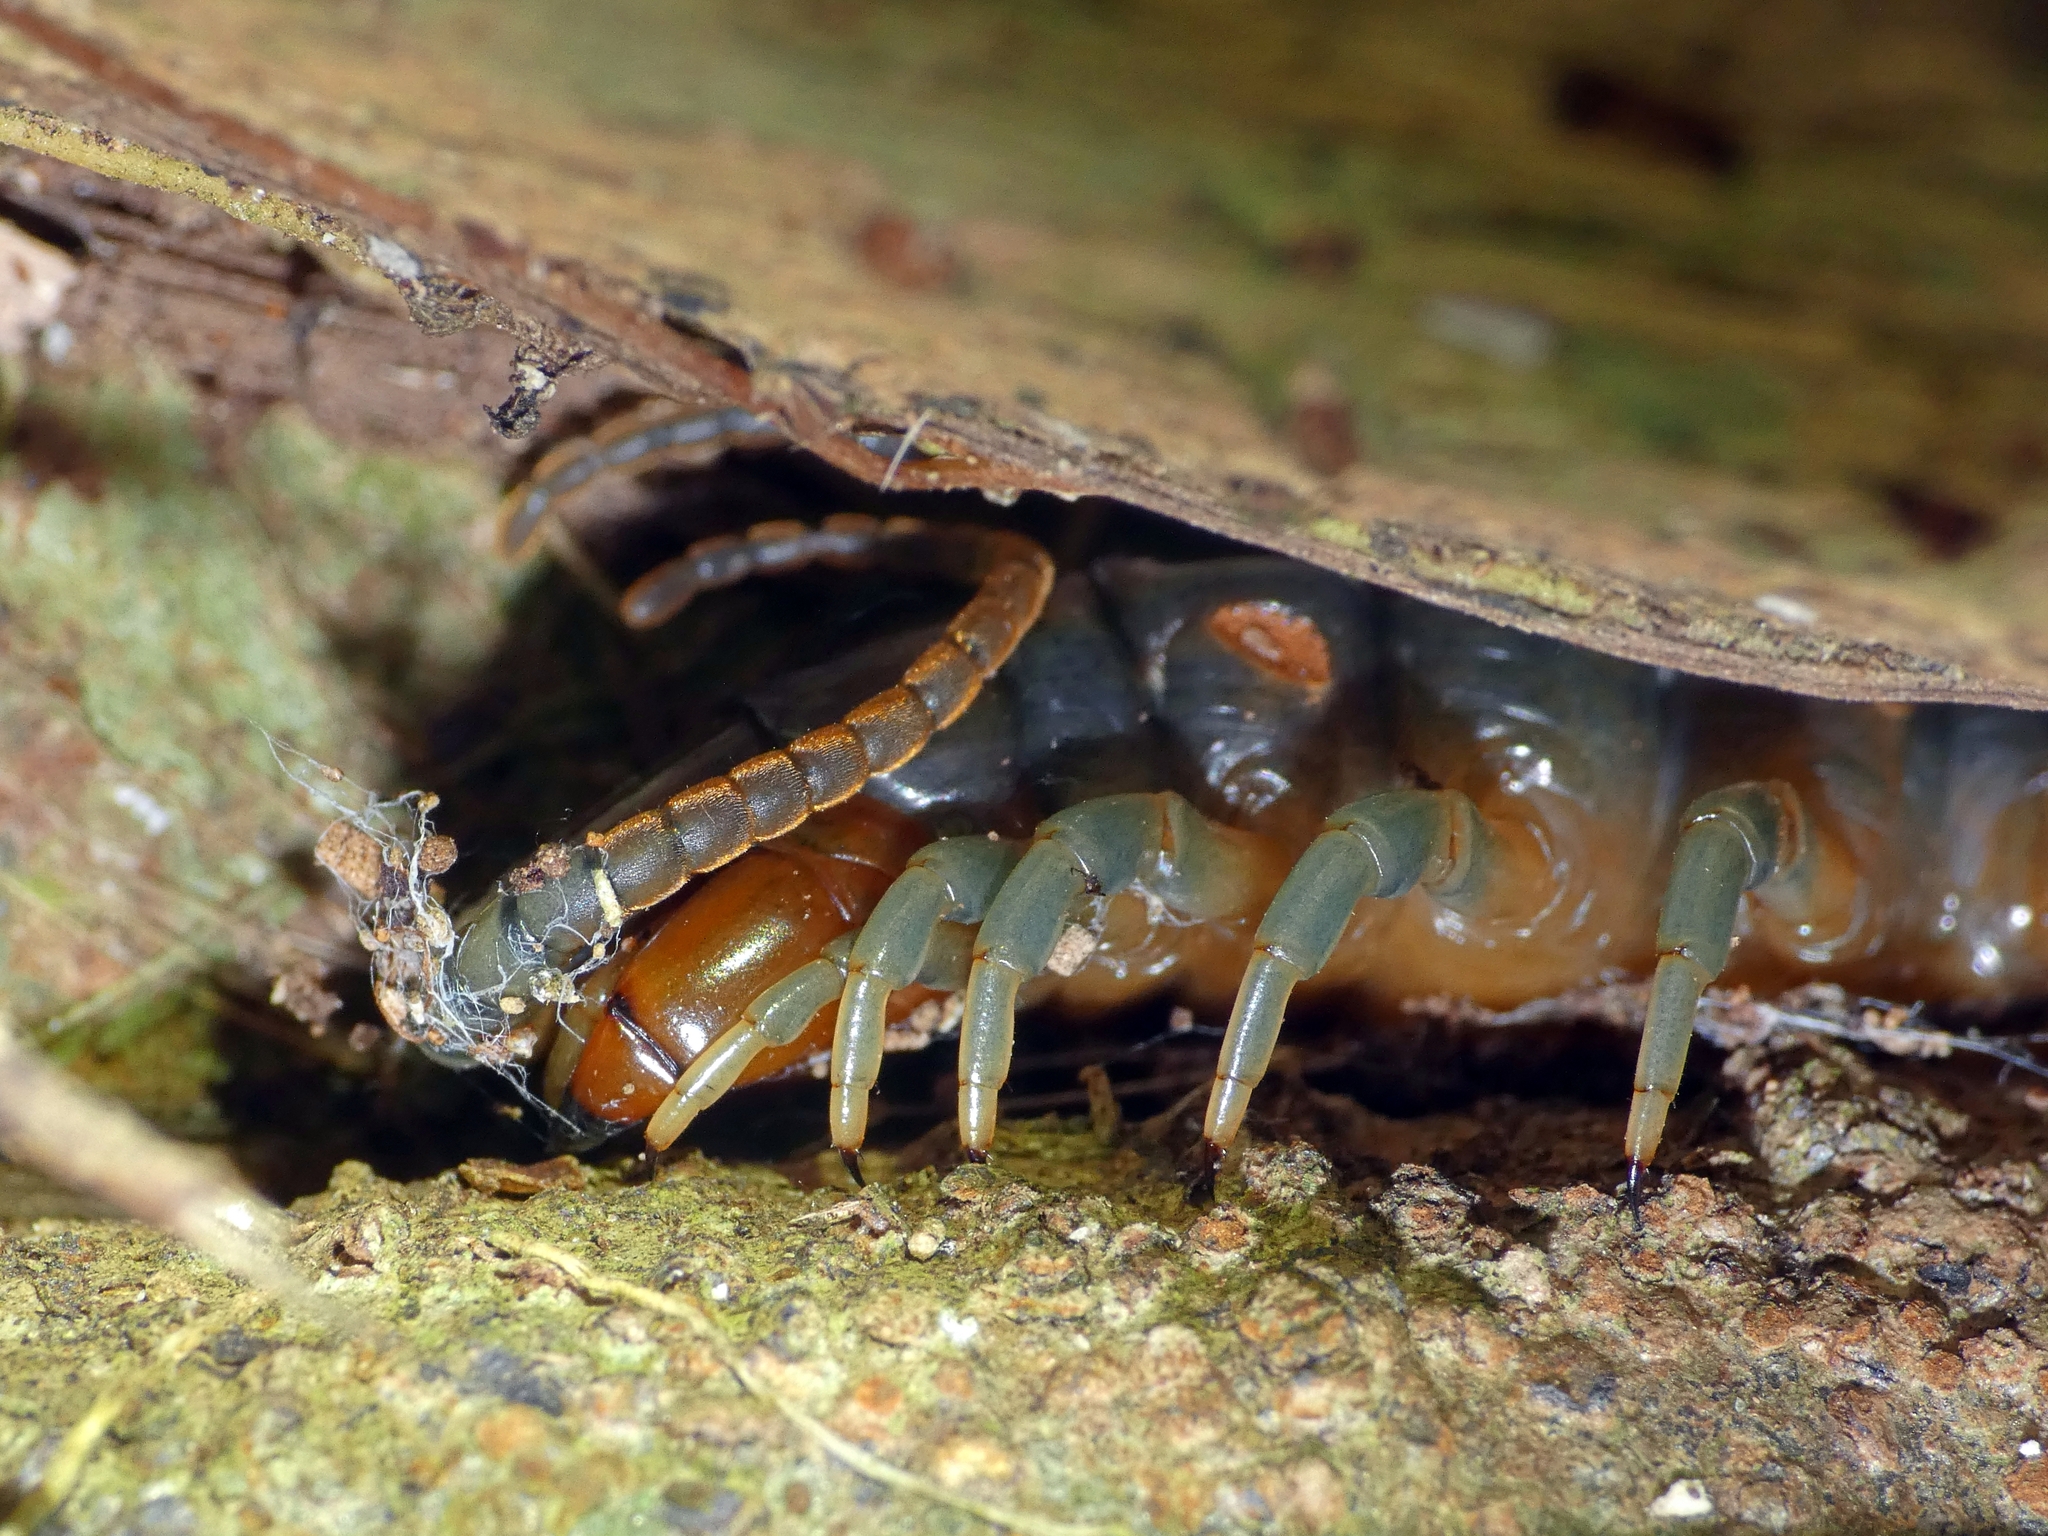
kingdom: Animalia
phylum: Arthropoda
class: Chilopoda
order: Scolopendromorpha
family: Scolopendridae
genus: Ethmostigmus
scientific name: Ethmostigmus rubripes
